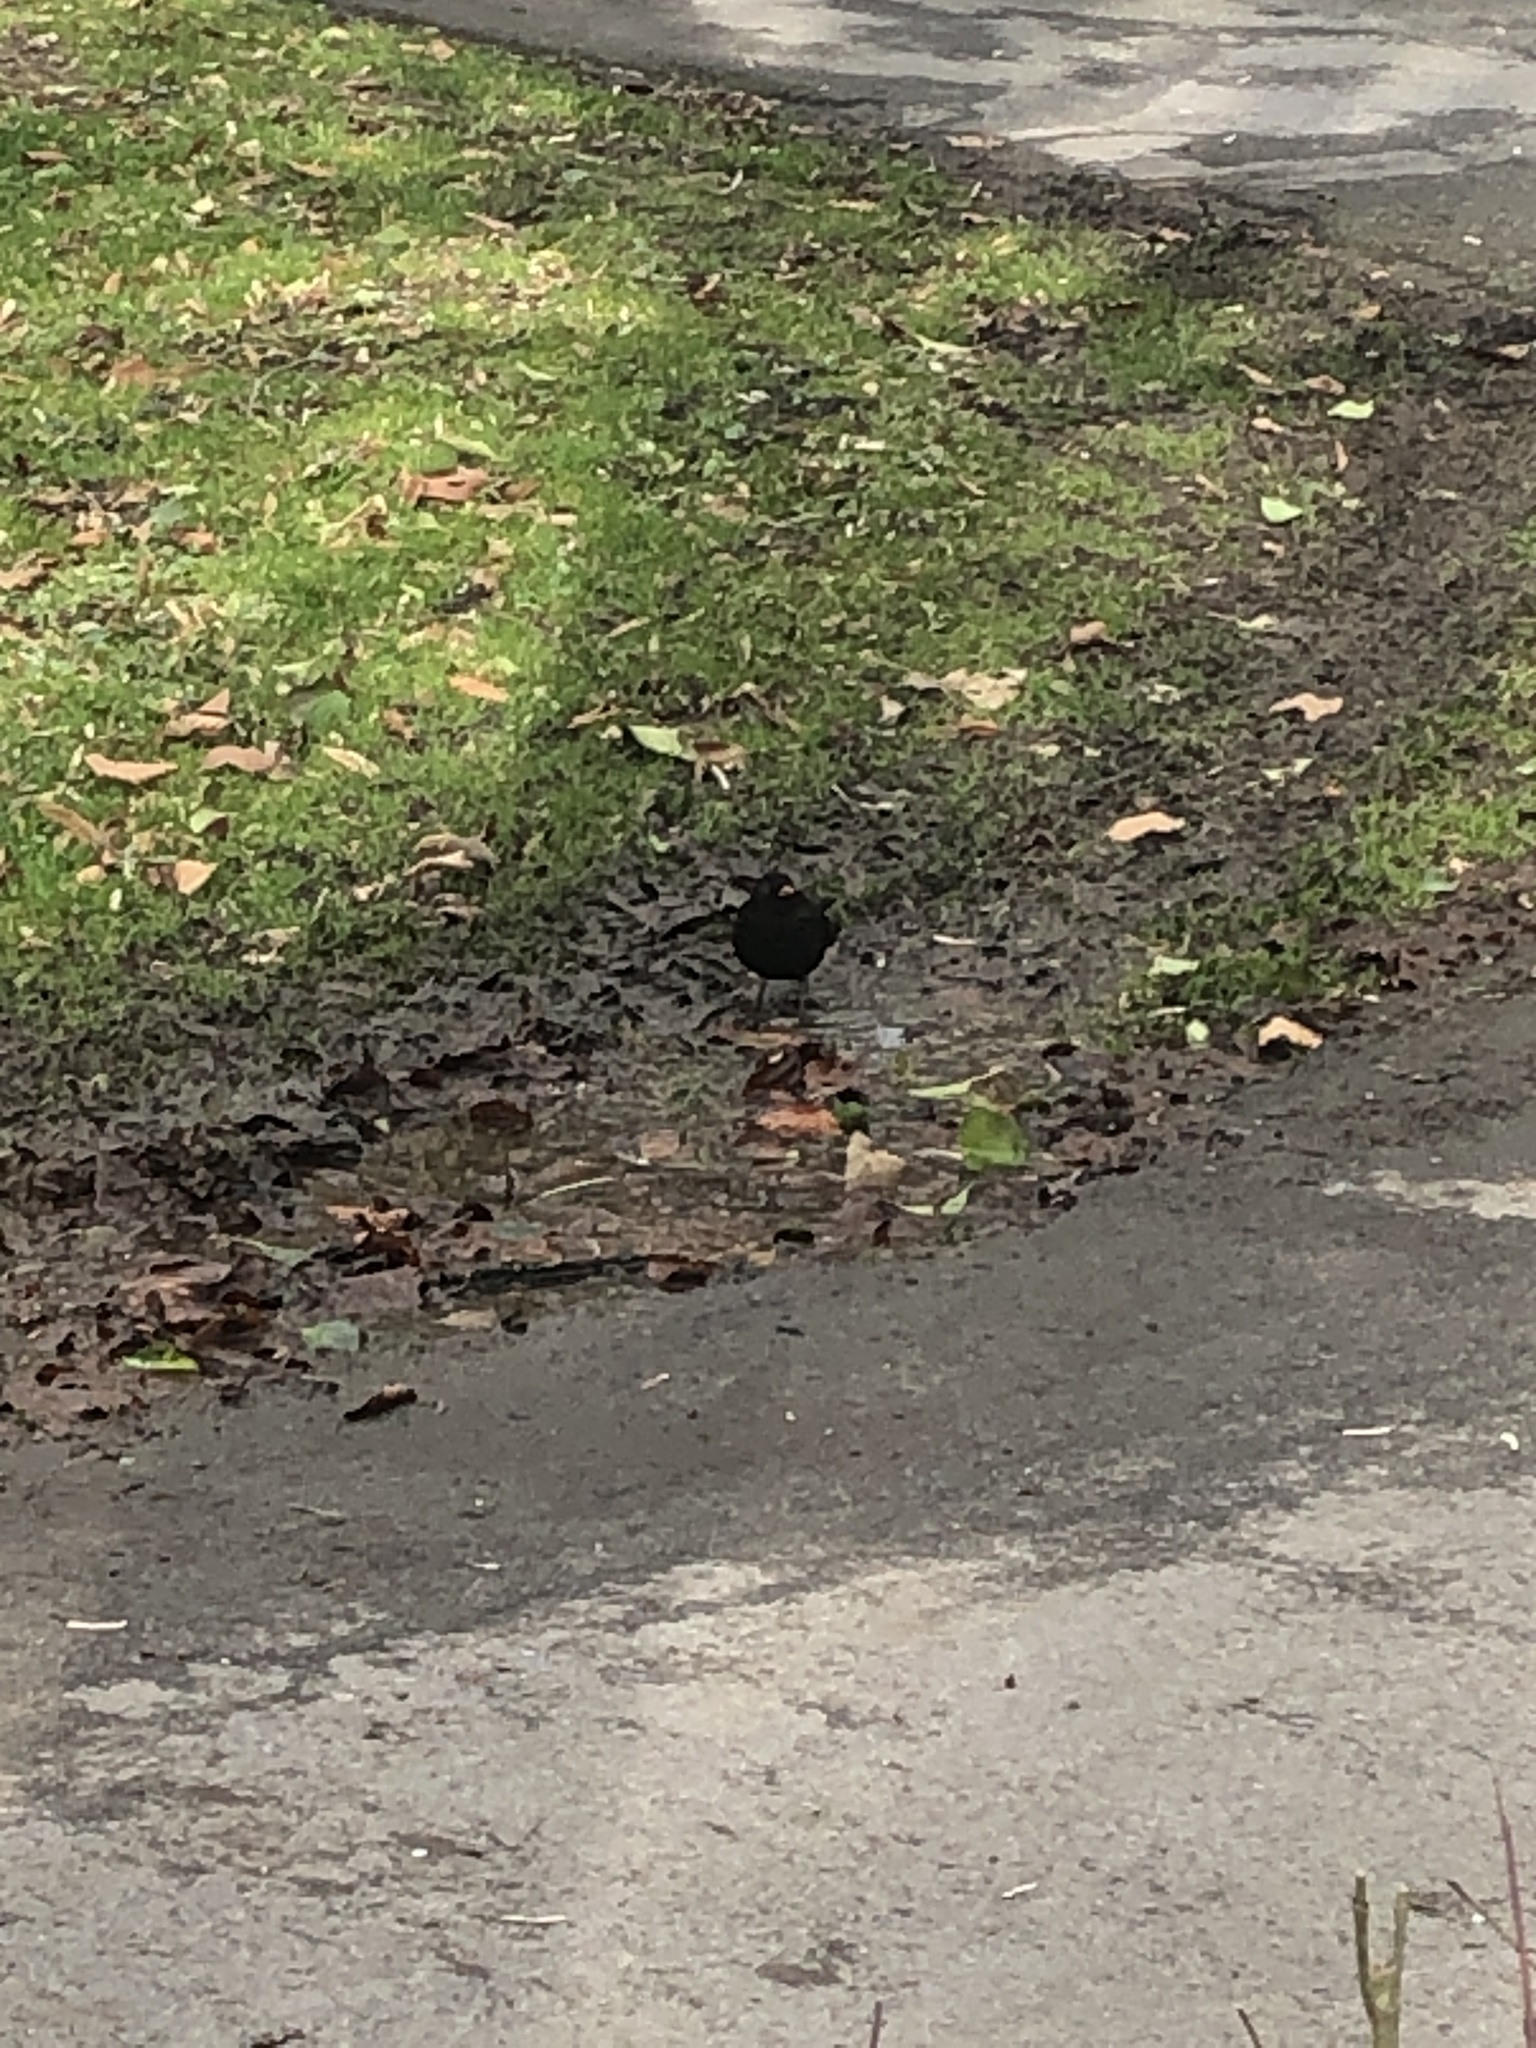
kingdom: Animalia
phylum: Chordata
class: Aves
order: Passeriformes
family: Turdidae
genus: Turdus
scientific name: Turdus merula
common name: Common blackbird
